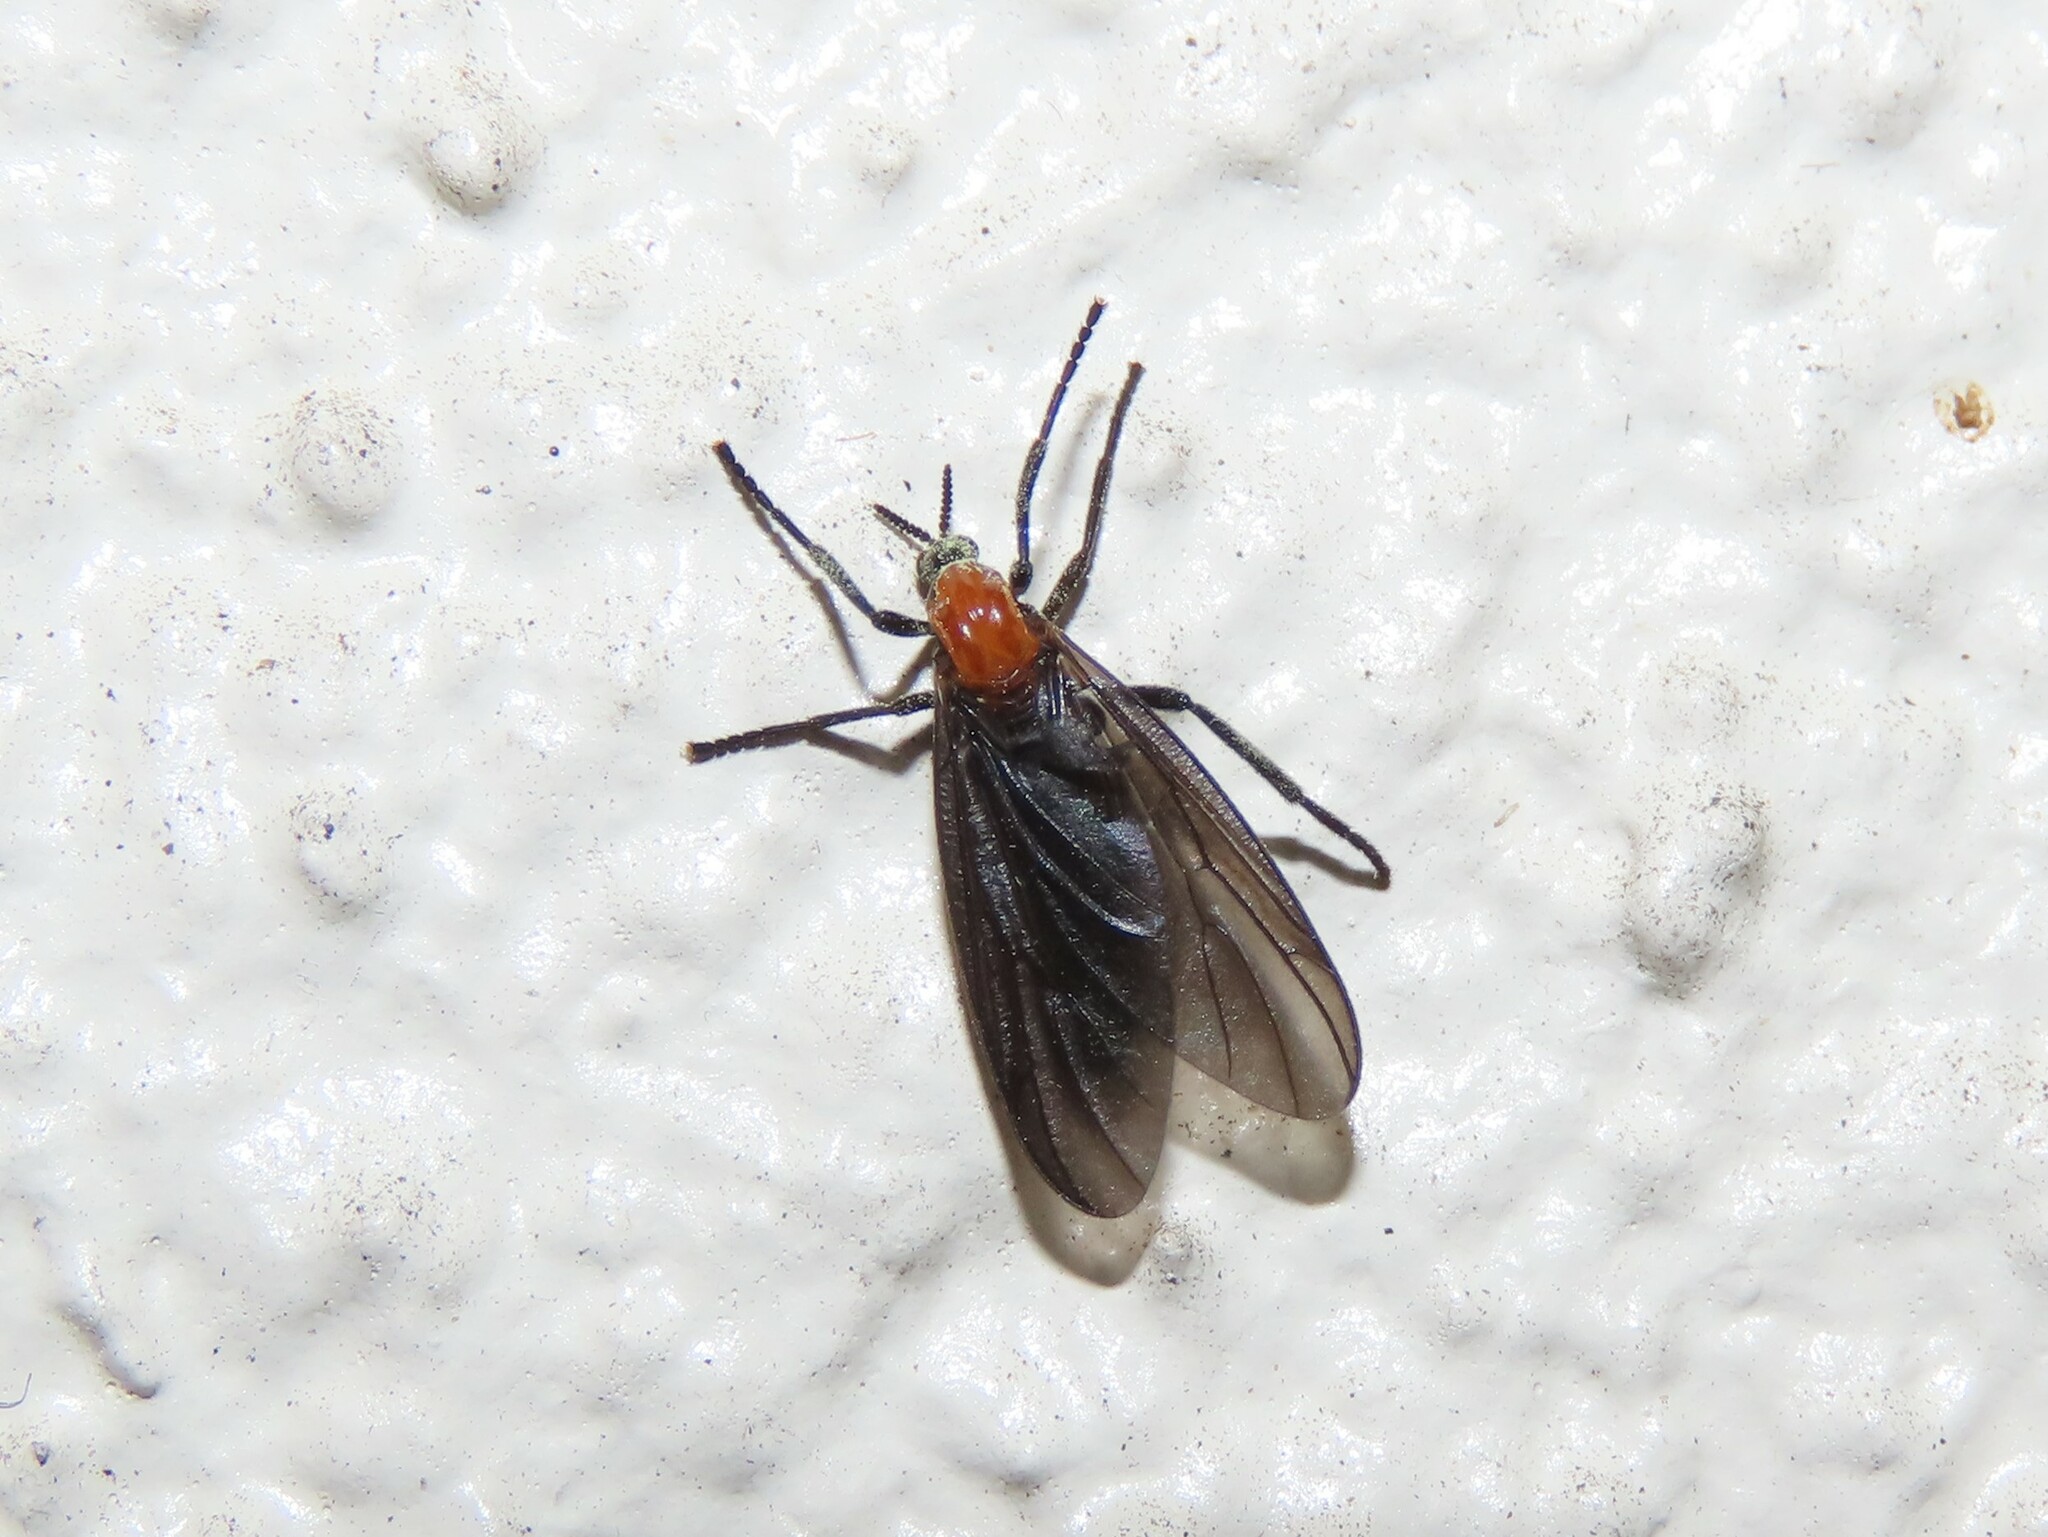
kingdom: Animalia
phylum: Arthropoda
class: Insecta
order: Diptera
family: Bibionidae
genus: Plecia
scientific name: Plecia nearctica
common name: March fly
